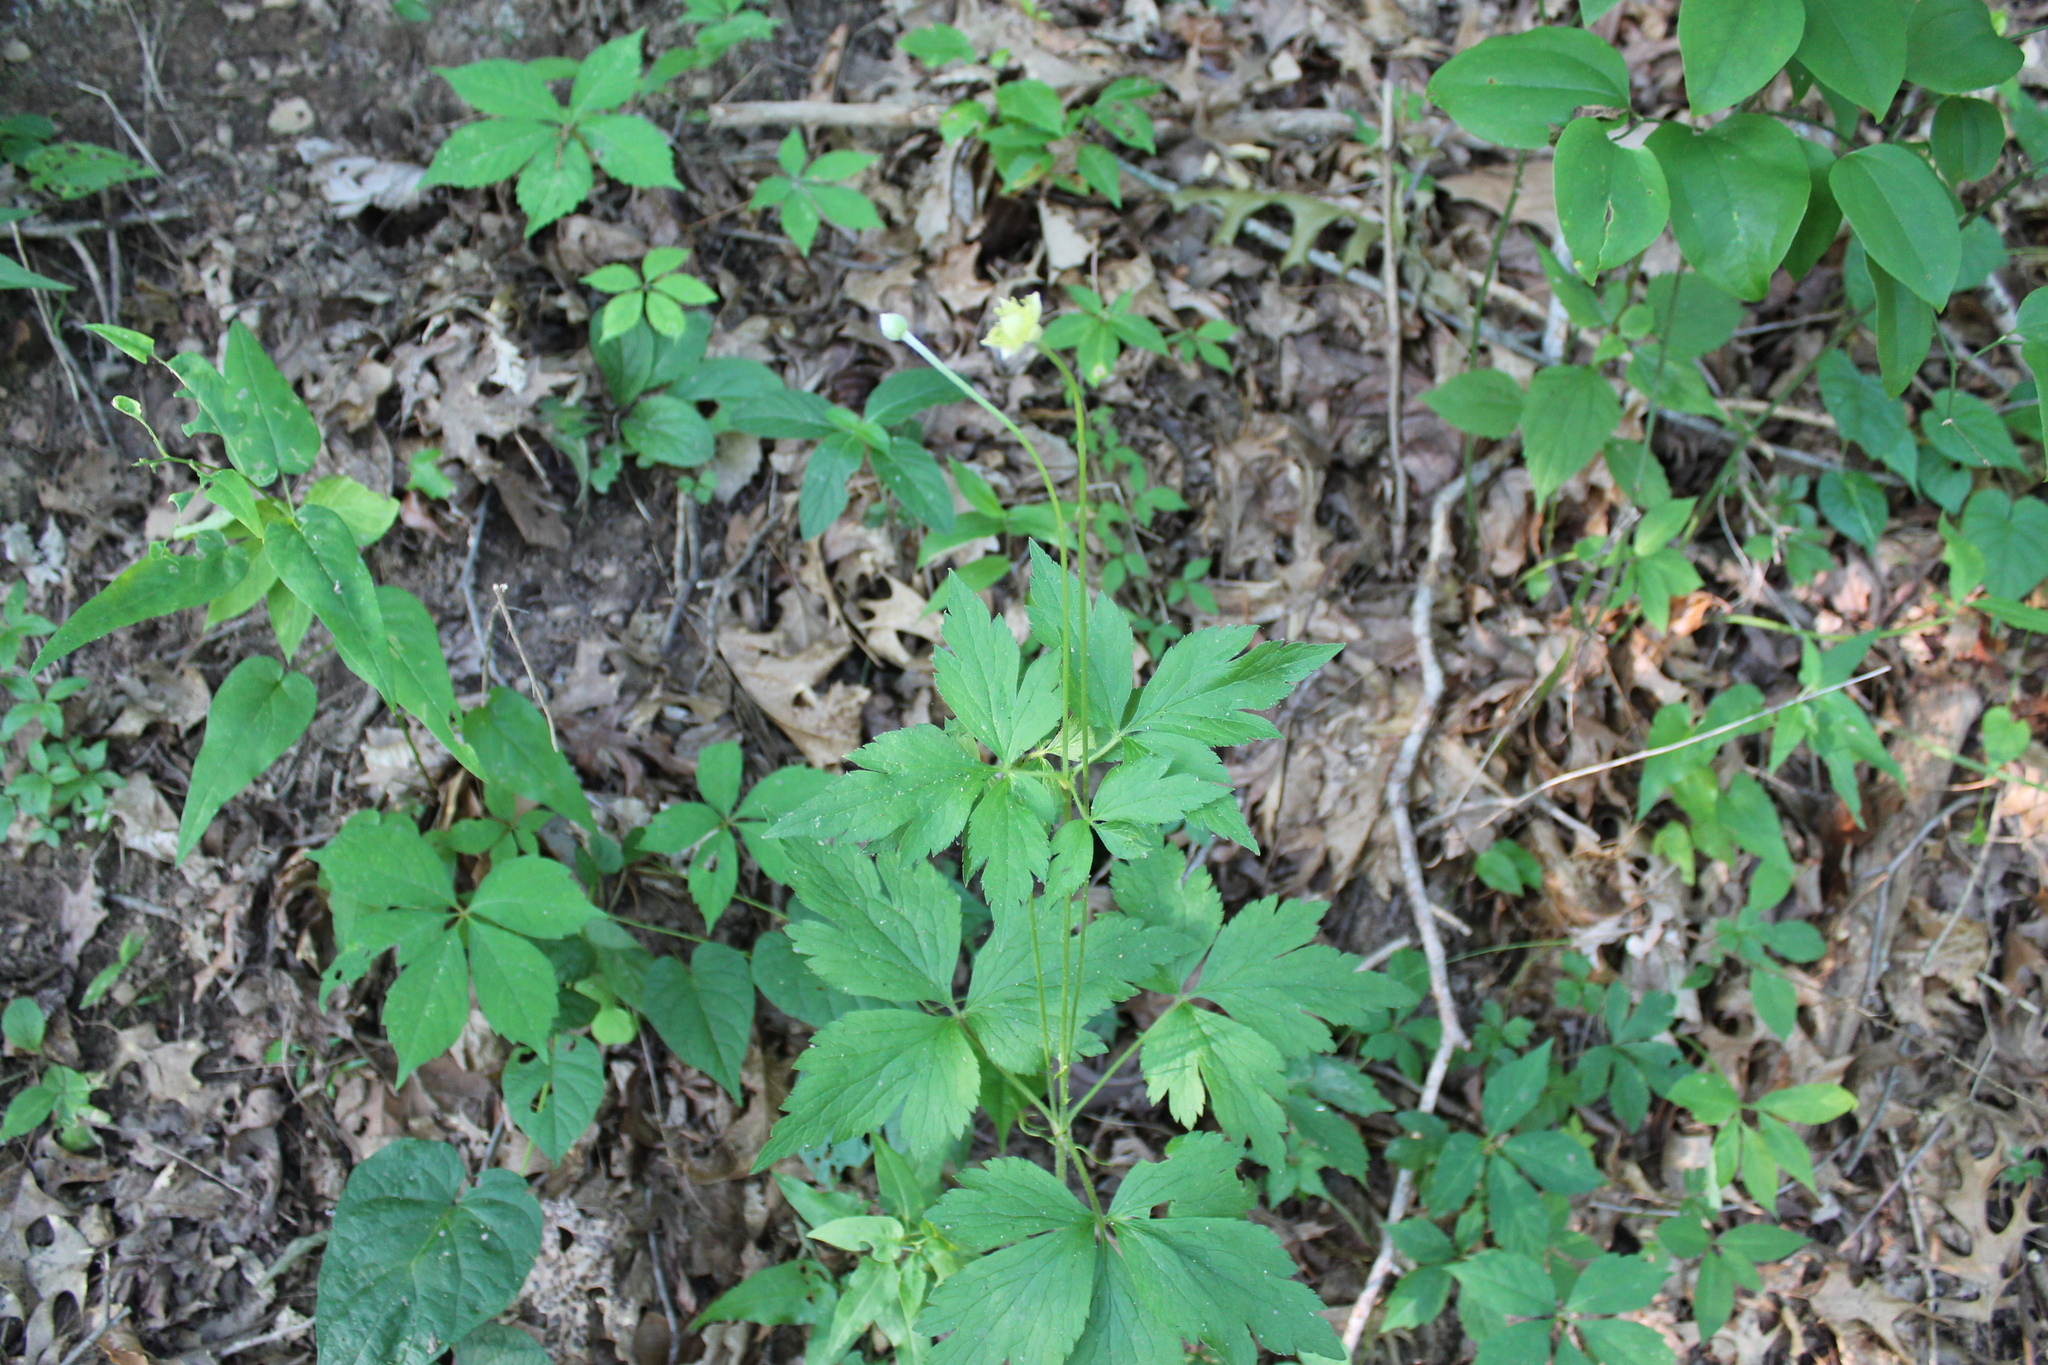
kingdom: Plantae
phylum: Tracheophyta
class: Magnoliopsida
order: Ranunculales
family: Ranunculaceae
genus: Anemone
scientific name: Anemone virginiana
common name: Tall anemone
